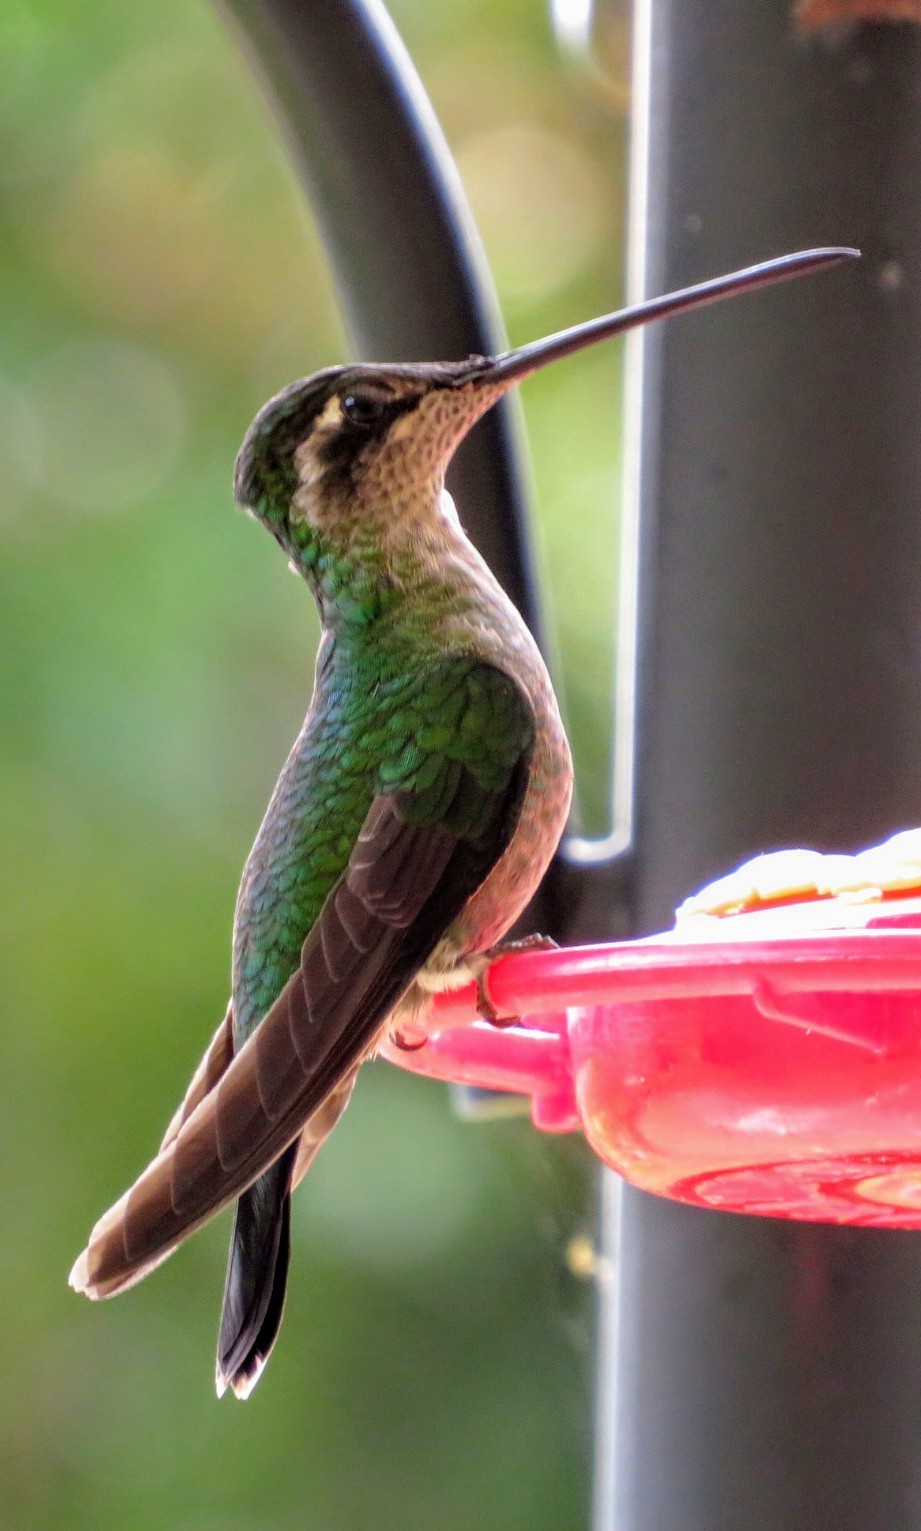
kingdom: Animalia
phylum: Chordata
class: Aves
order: Apodiformes
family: Trochilidae
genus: Eugenes
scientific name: Eugenes spectabilis
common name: Talamanca hummingbird
